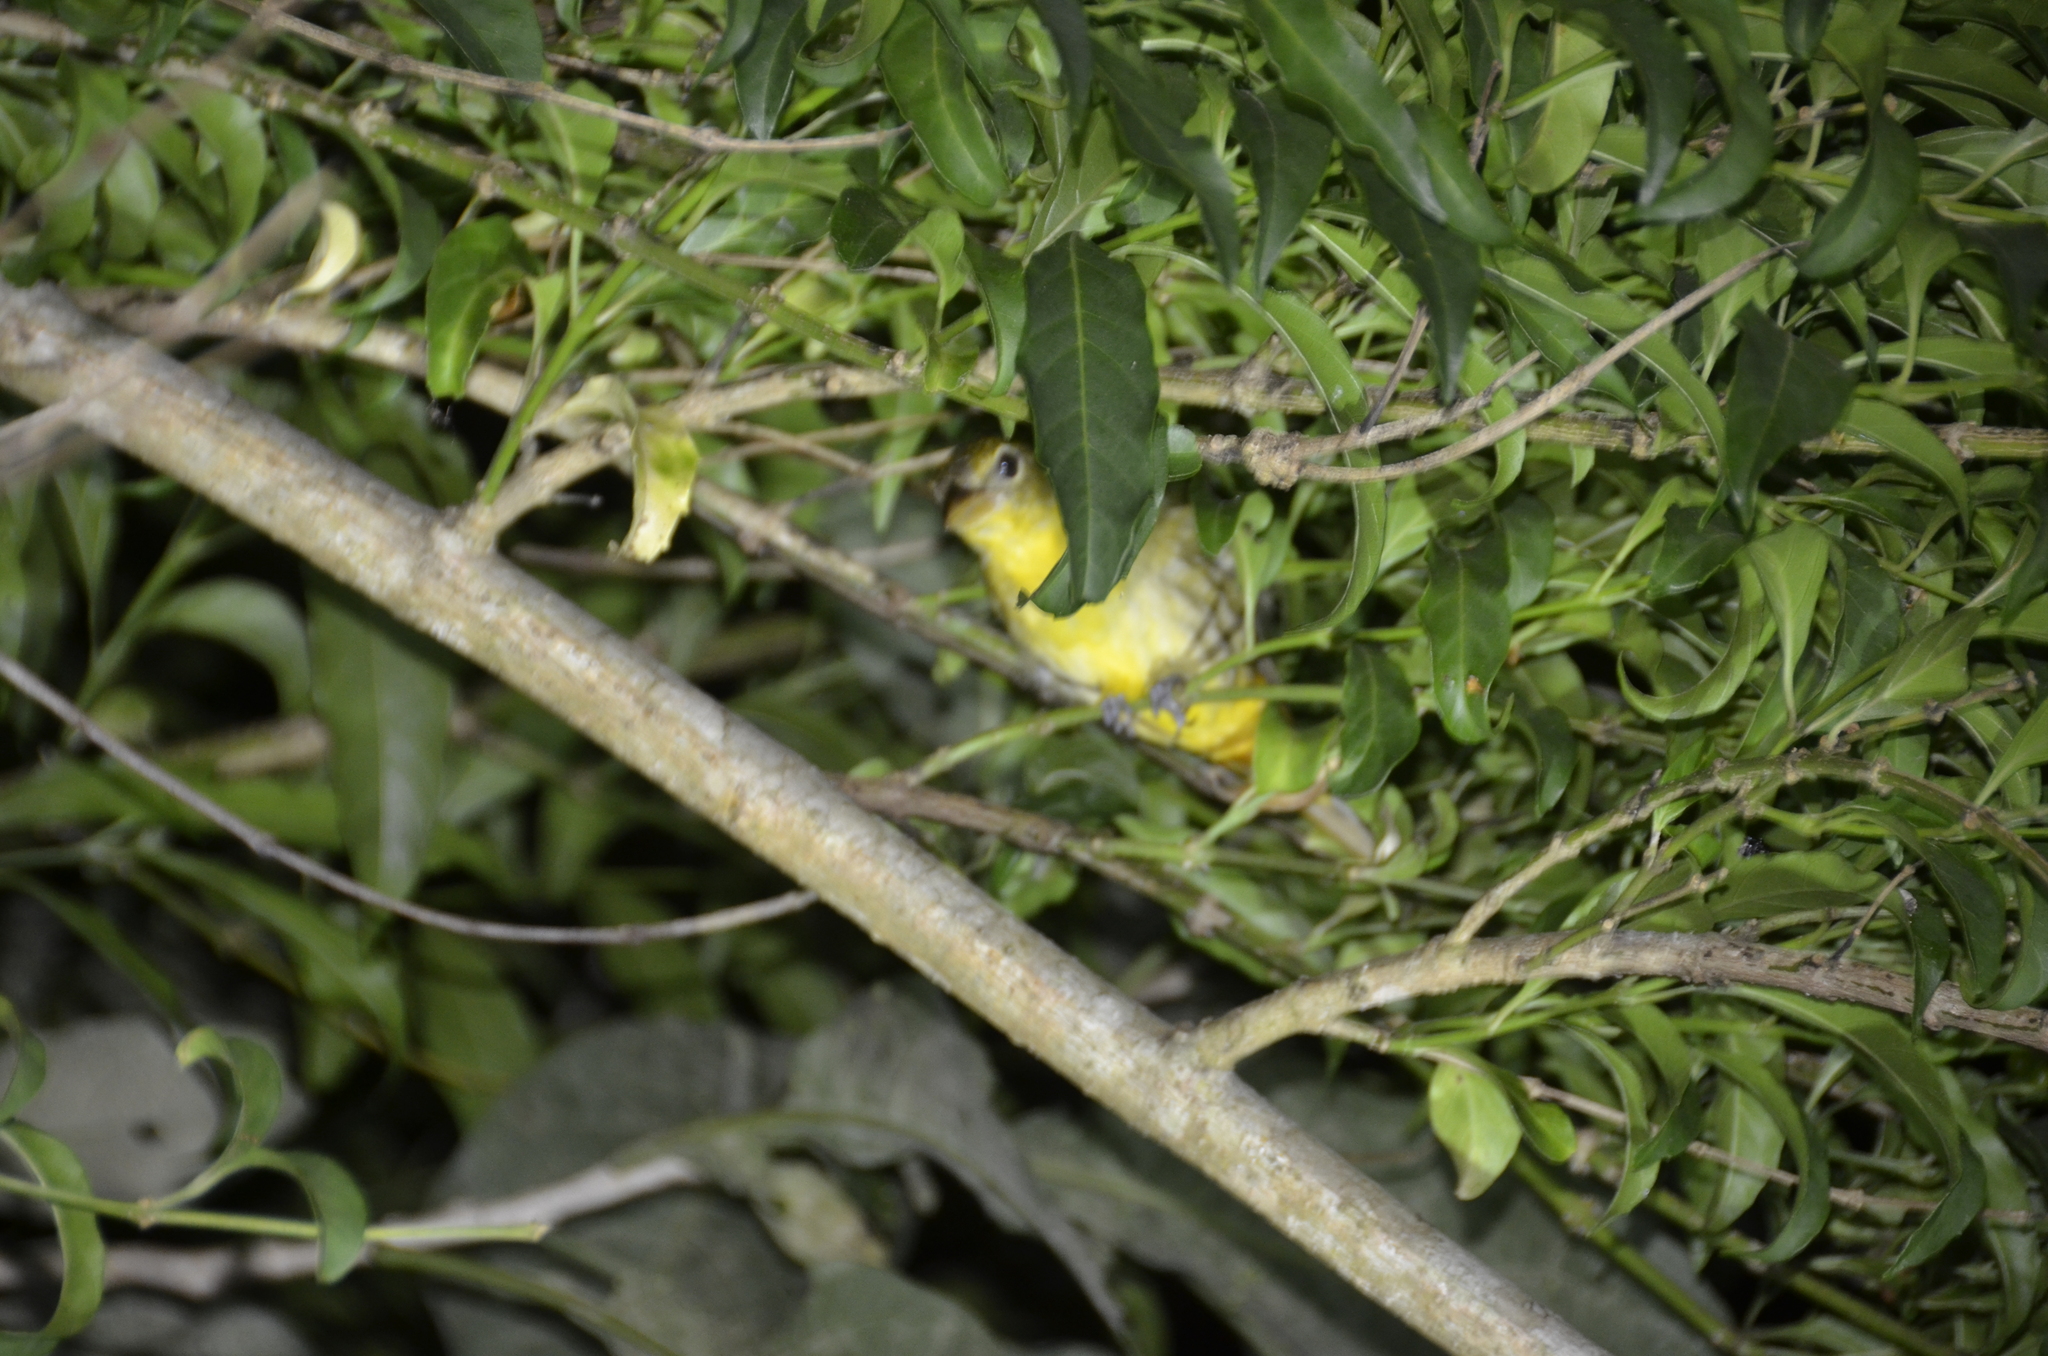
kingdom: Animalia
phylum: Chordata
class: Aves
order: Passeriformes
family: Cardinalidae
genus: Piranga
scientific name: Piranga rubra
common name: Summer tanager
